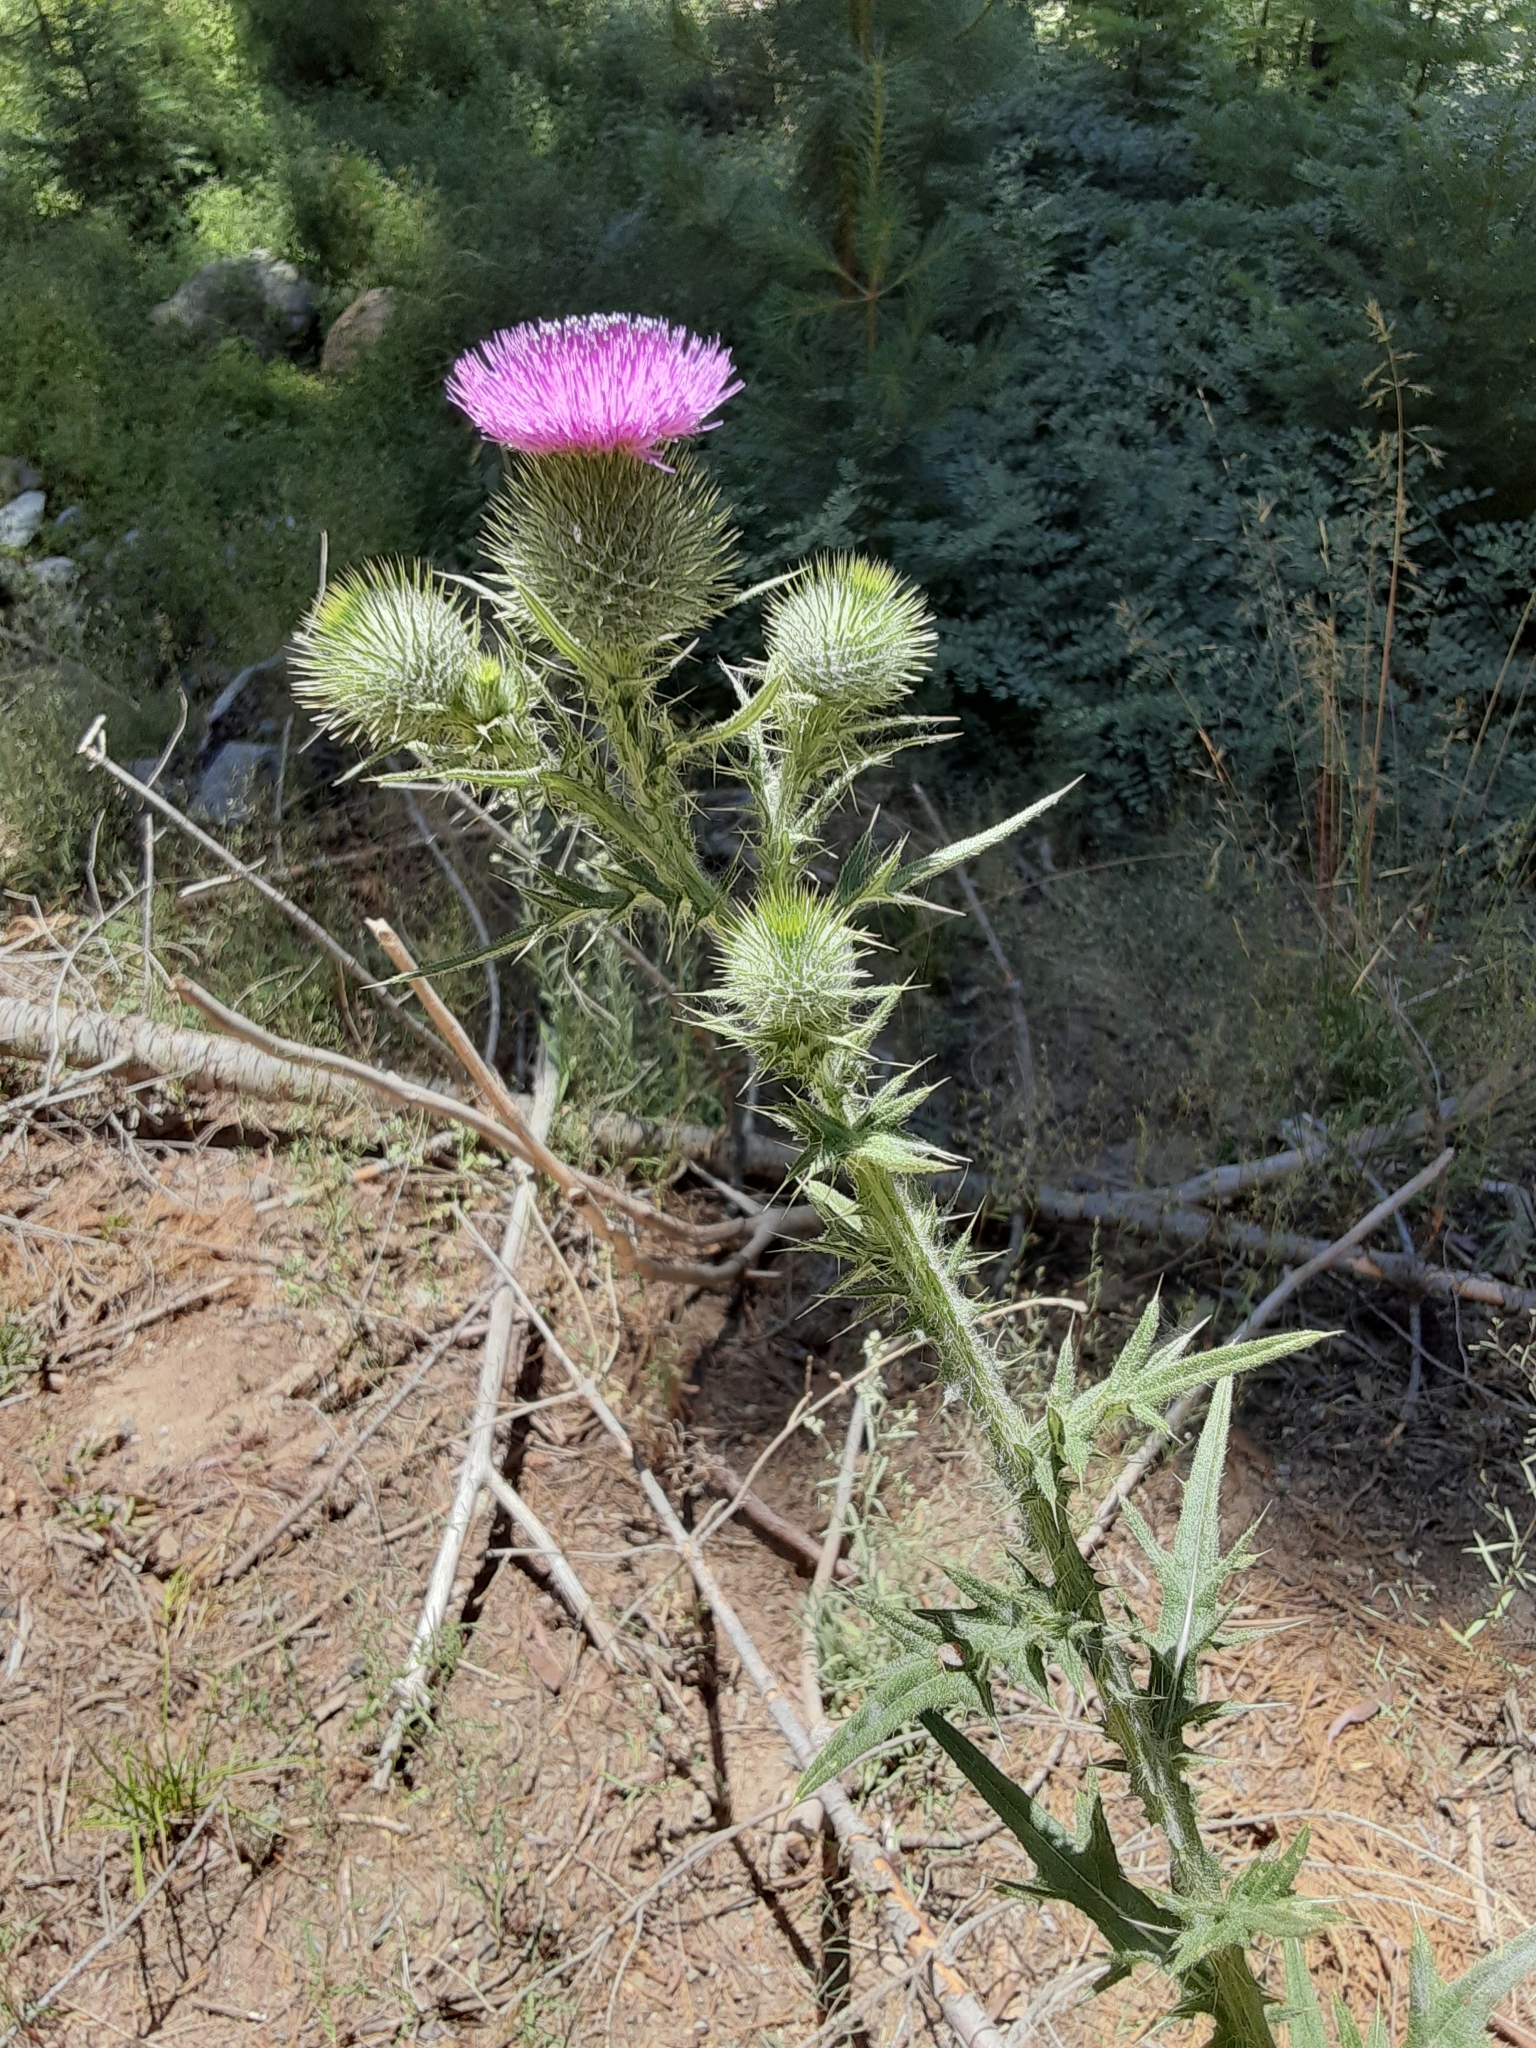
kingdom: Plantae
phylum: Tracheophyta
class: Magnoliopsida
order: Asterales
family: Asteraceae
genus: Cirsium
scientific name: Cirsium vulgare
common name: Bull thistle
